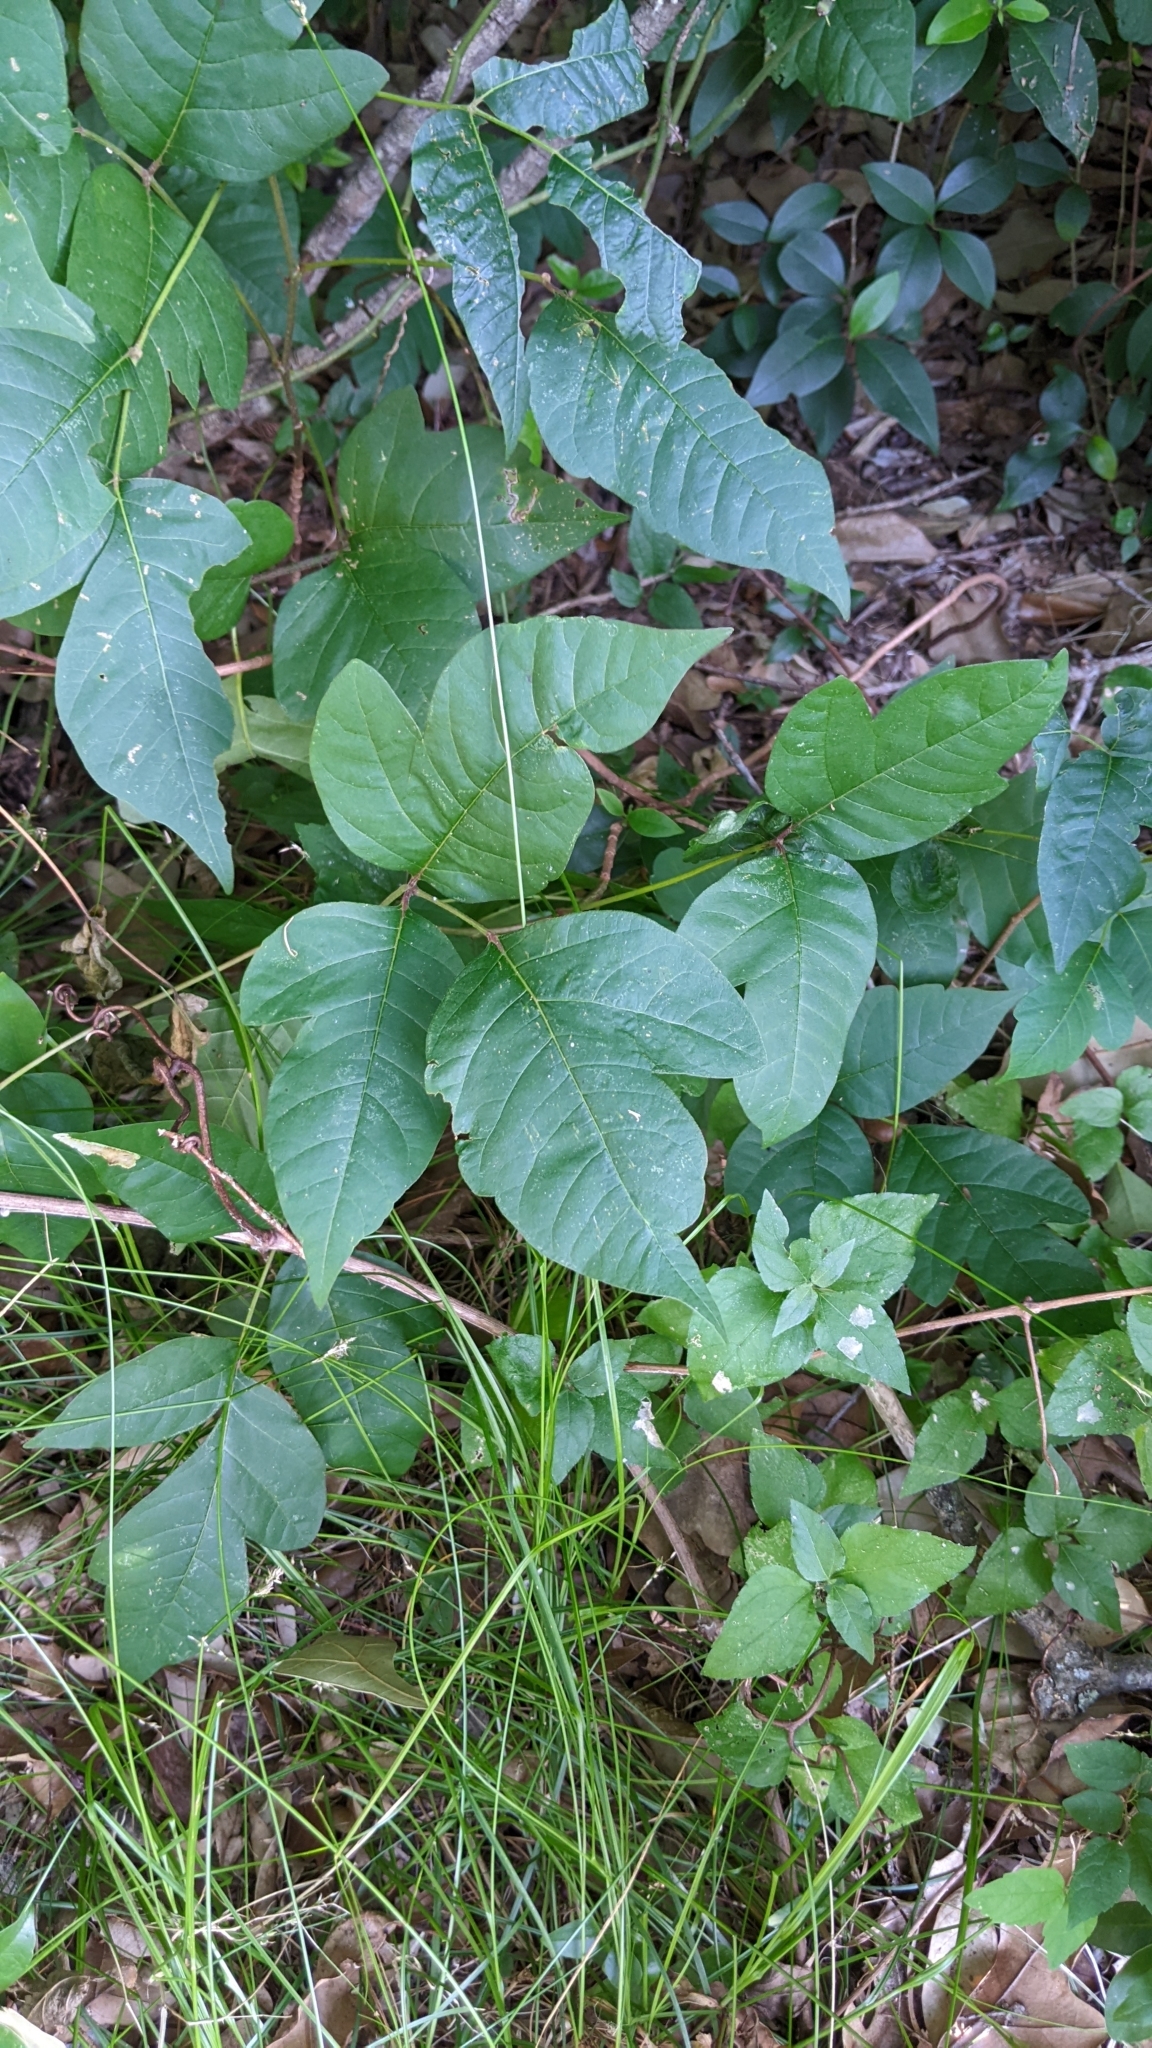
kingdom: Plantae
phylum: Tracheophyta
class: Magnoliopsida
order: Sapindales
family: Anacardiaceae
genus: Toxicodendron
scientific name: Toxicodendron radicans
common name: Poison ivy
